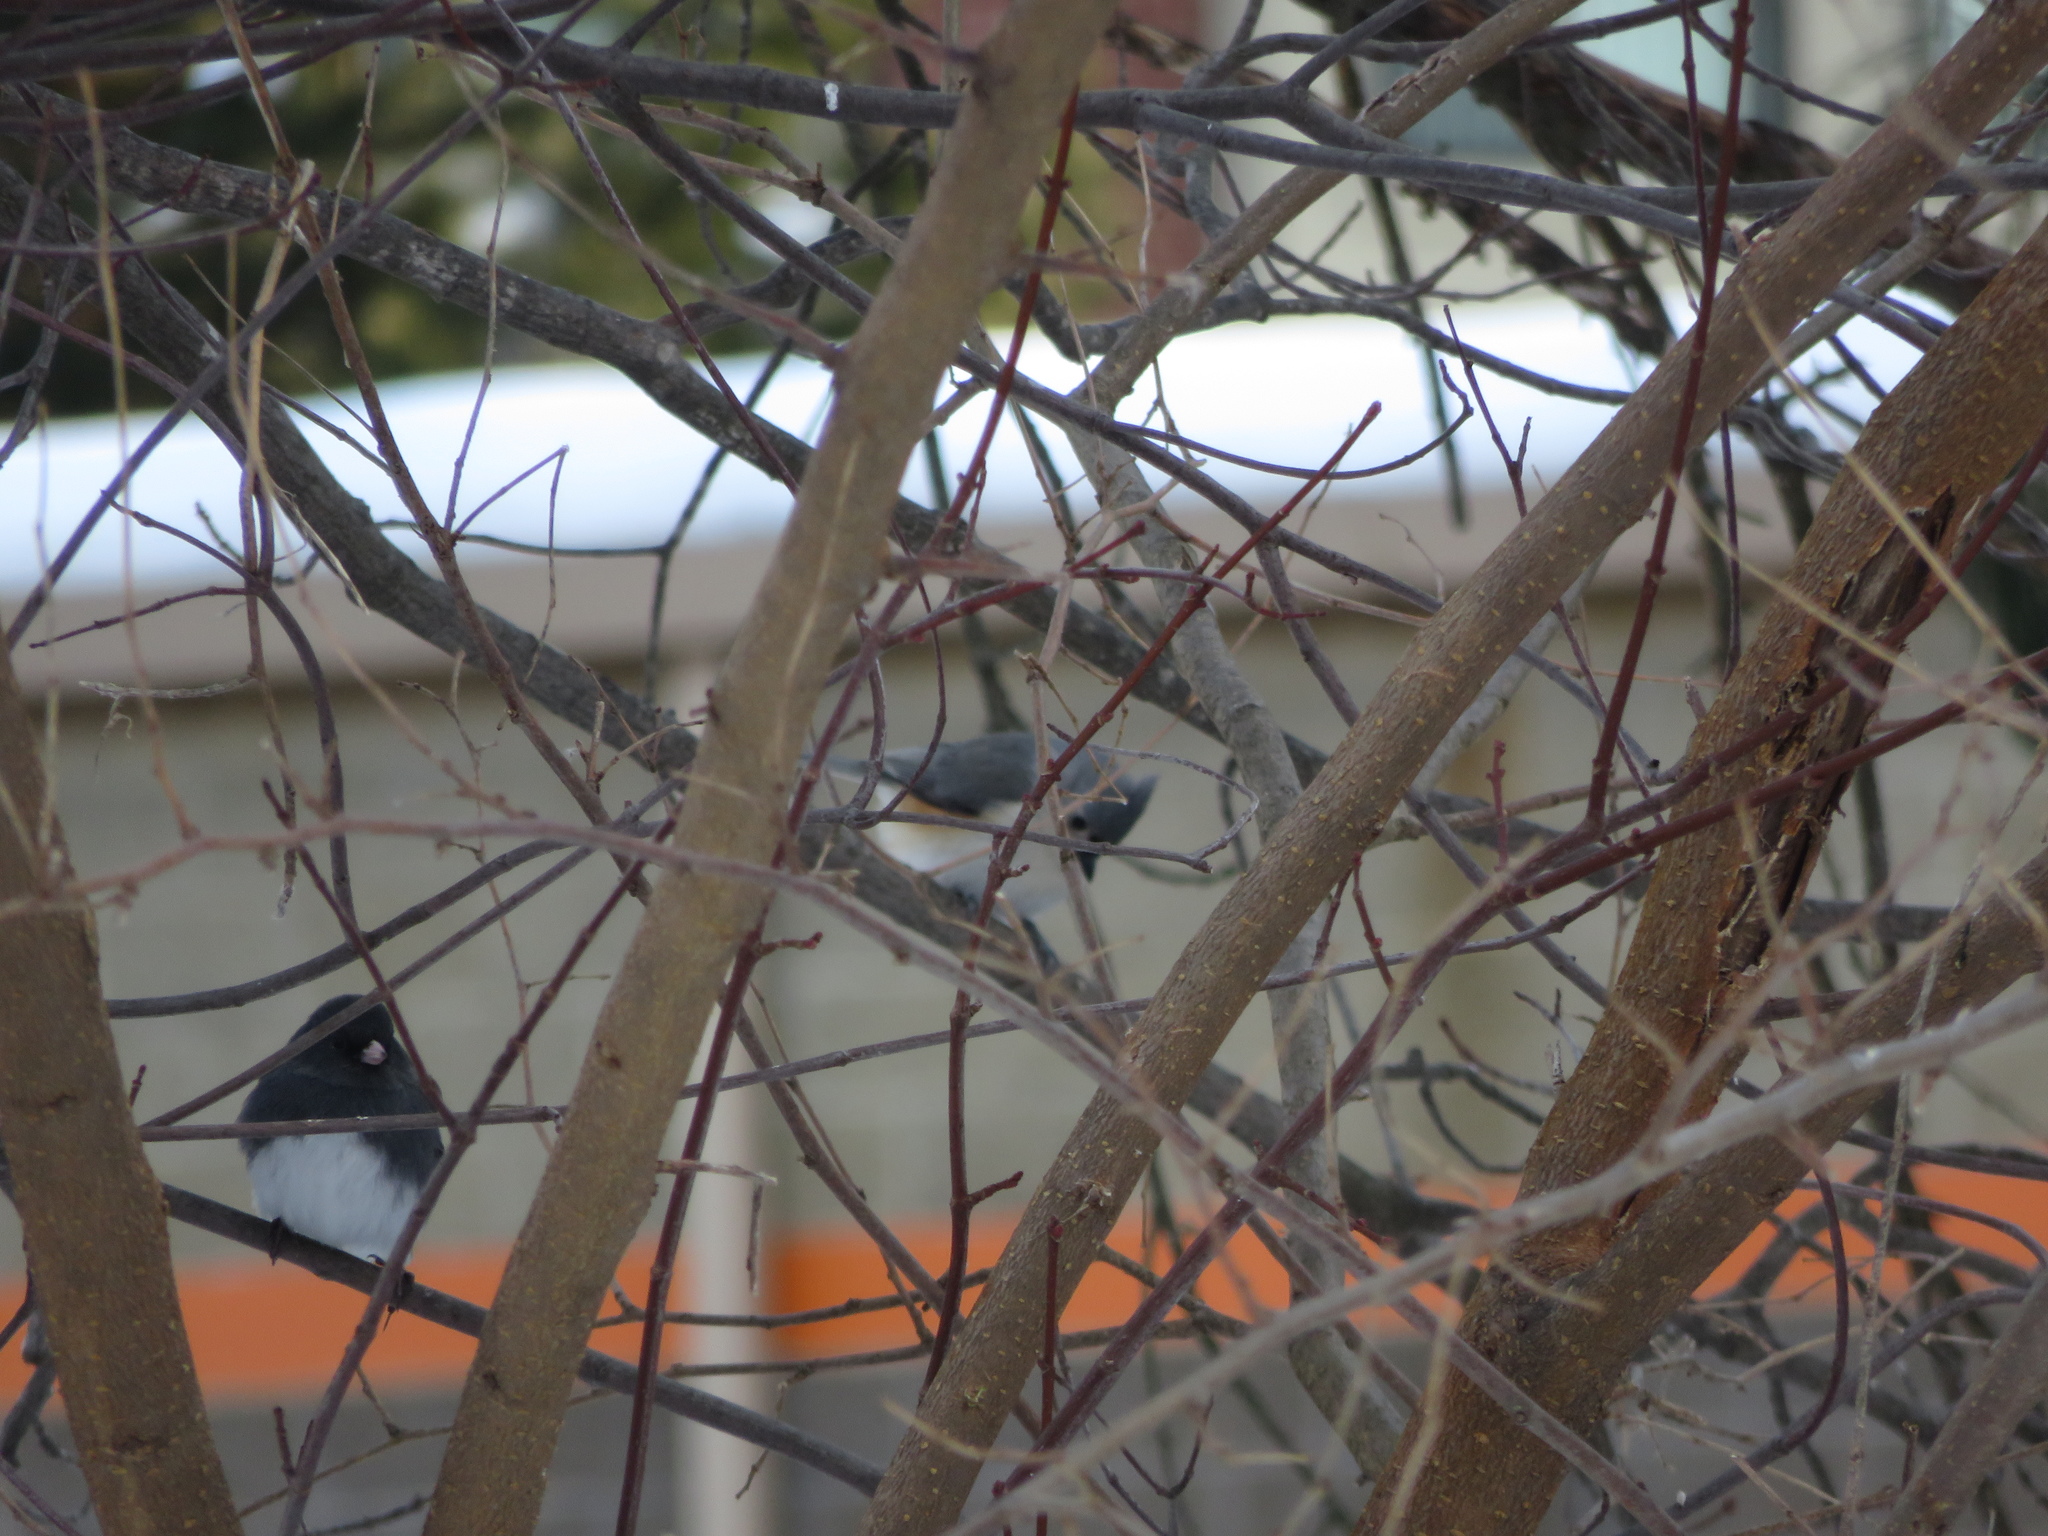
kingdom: Animalia
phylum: Chordata
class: Aves
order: Passeriformes
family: Paridae
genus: Baeolophus
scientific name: Baeolophus bicolor
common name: Tufted titmouse
